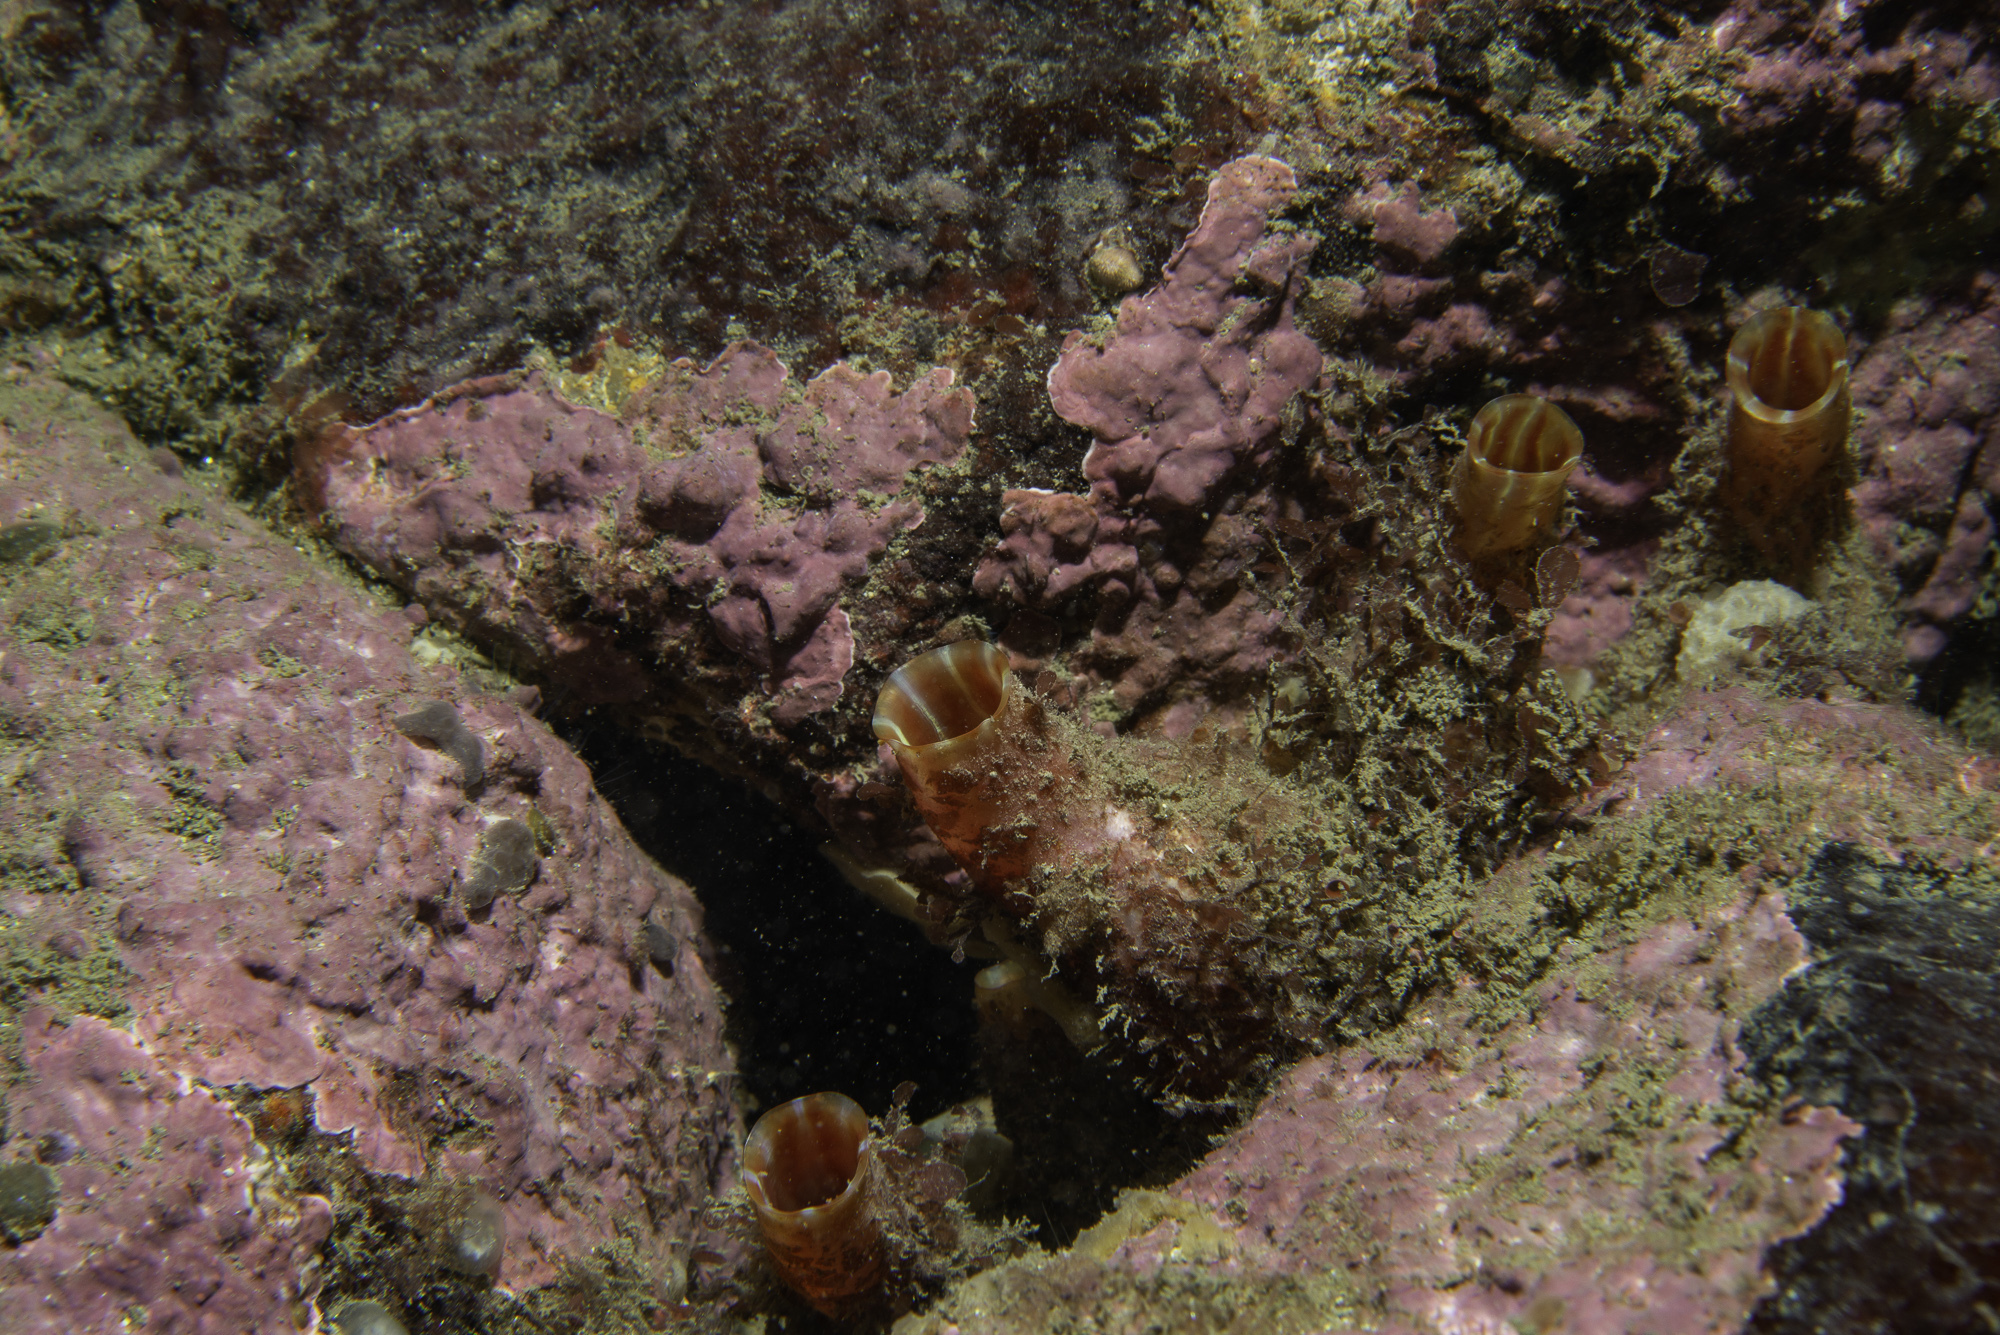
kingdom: Animalia
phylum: Chordata
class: Ascidiacea
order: Stolidobranchia
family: Pyuridae
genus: Pyura
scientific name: Pyura microcosmus
